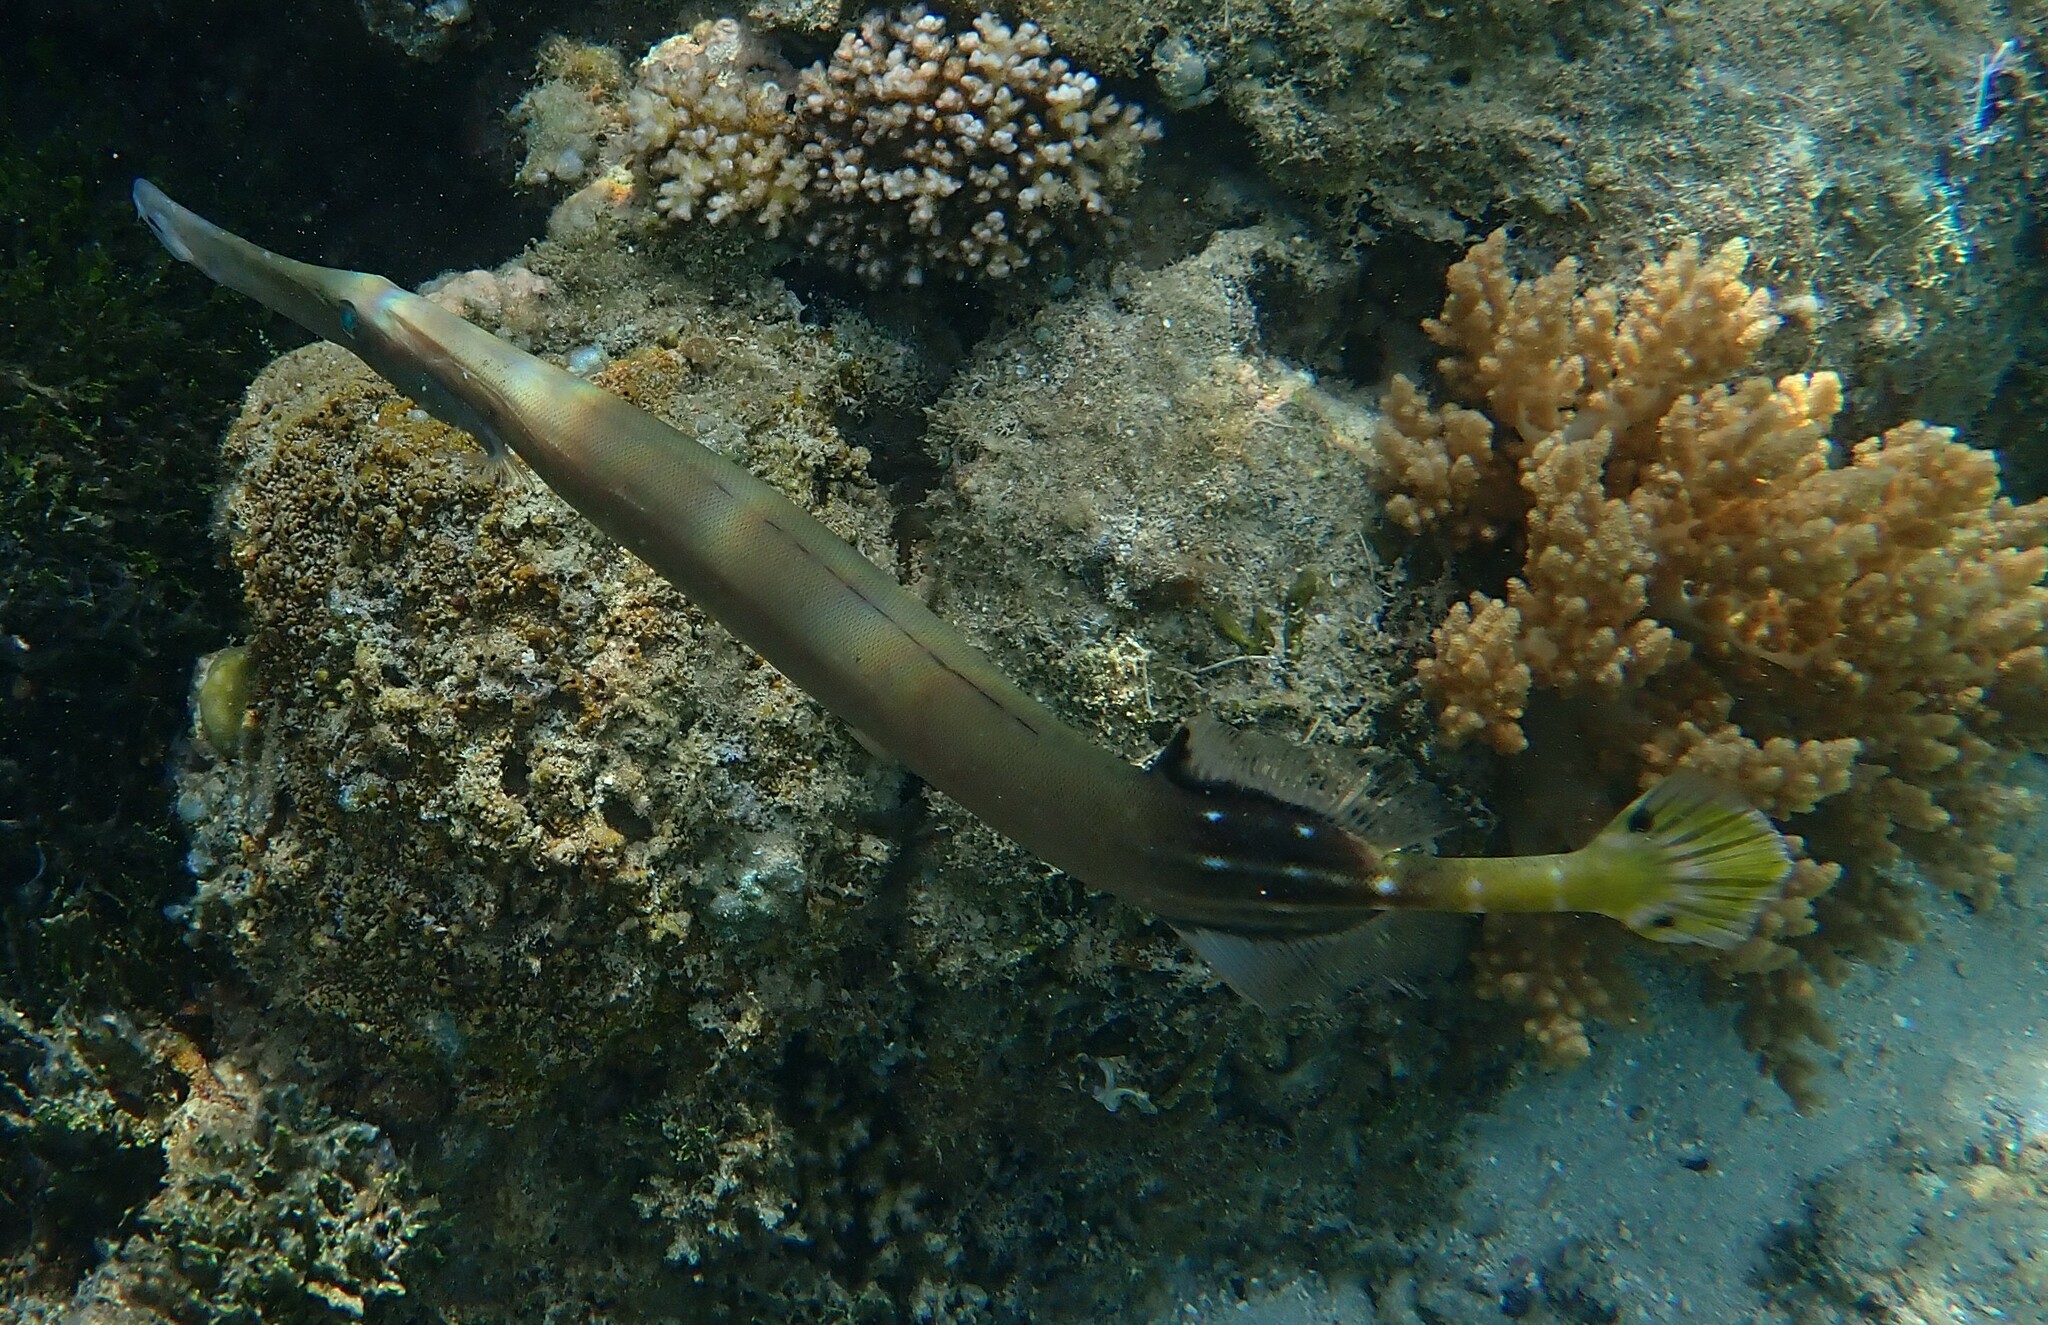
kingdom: Animalia
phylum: Chordata
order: Syngnathiformes
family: Aulostomidae
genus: Aulostomus
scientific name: Aulostomus chinensis
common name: Chinese trumpetfish
